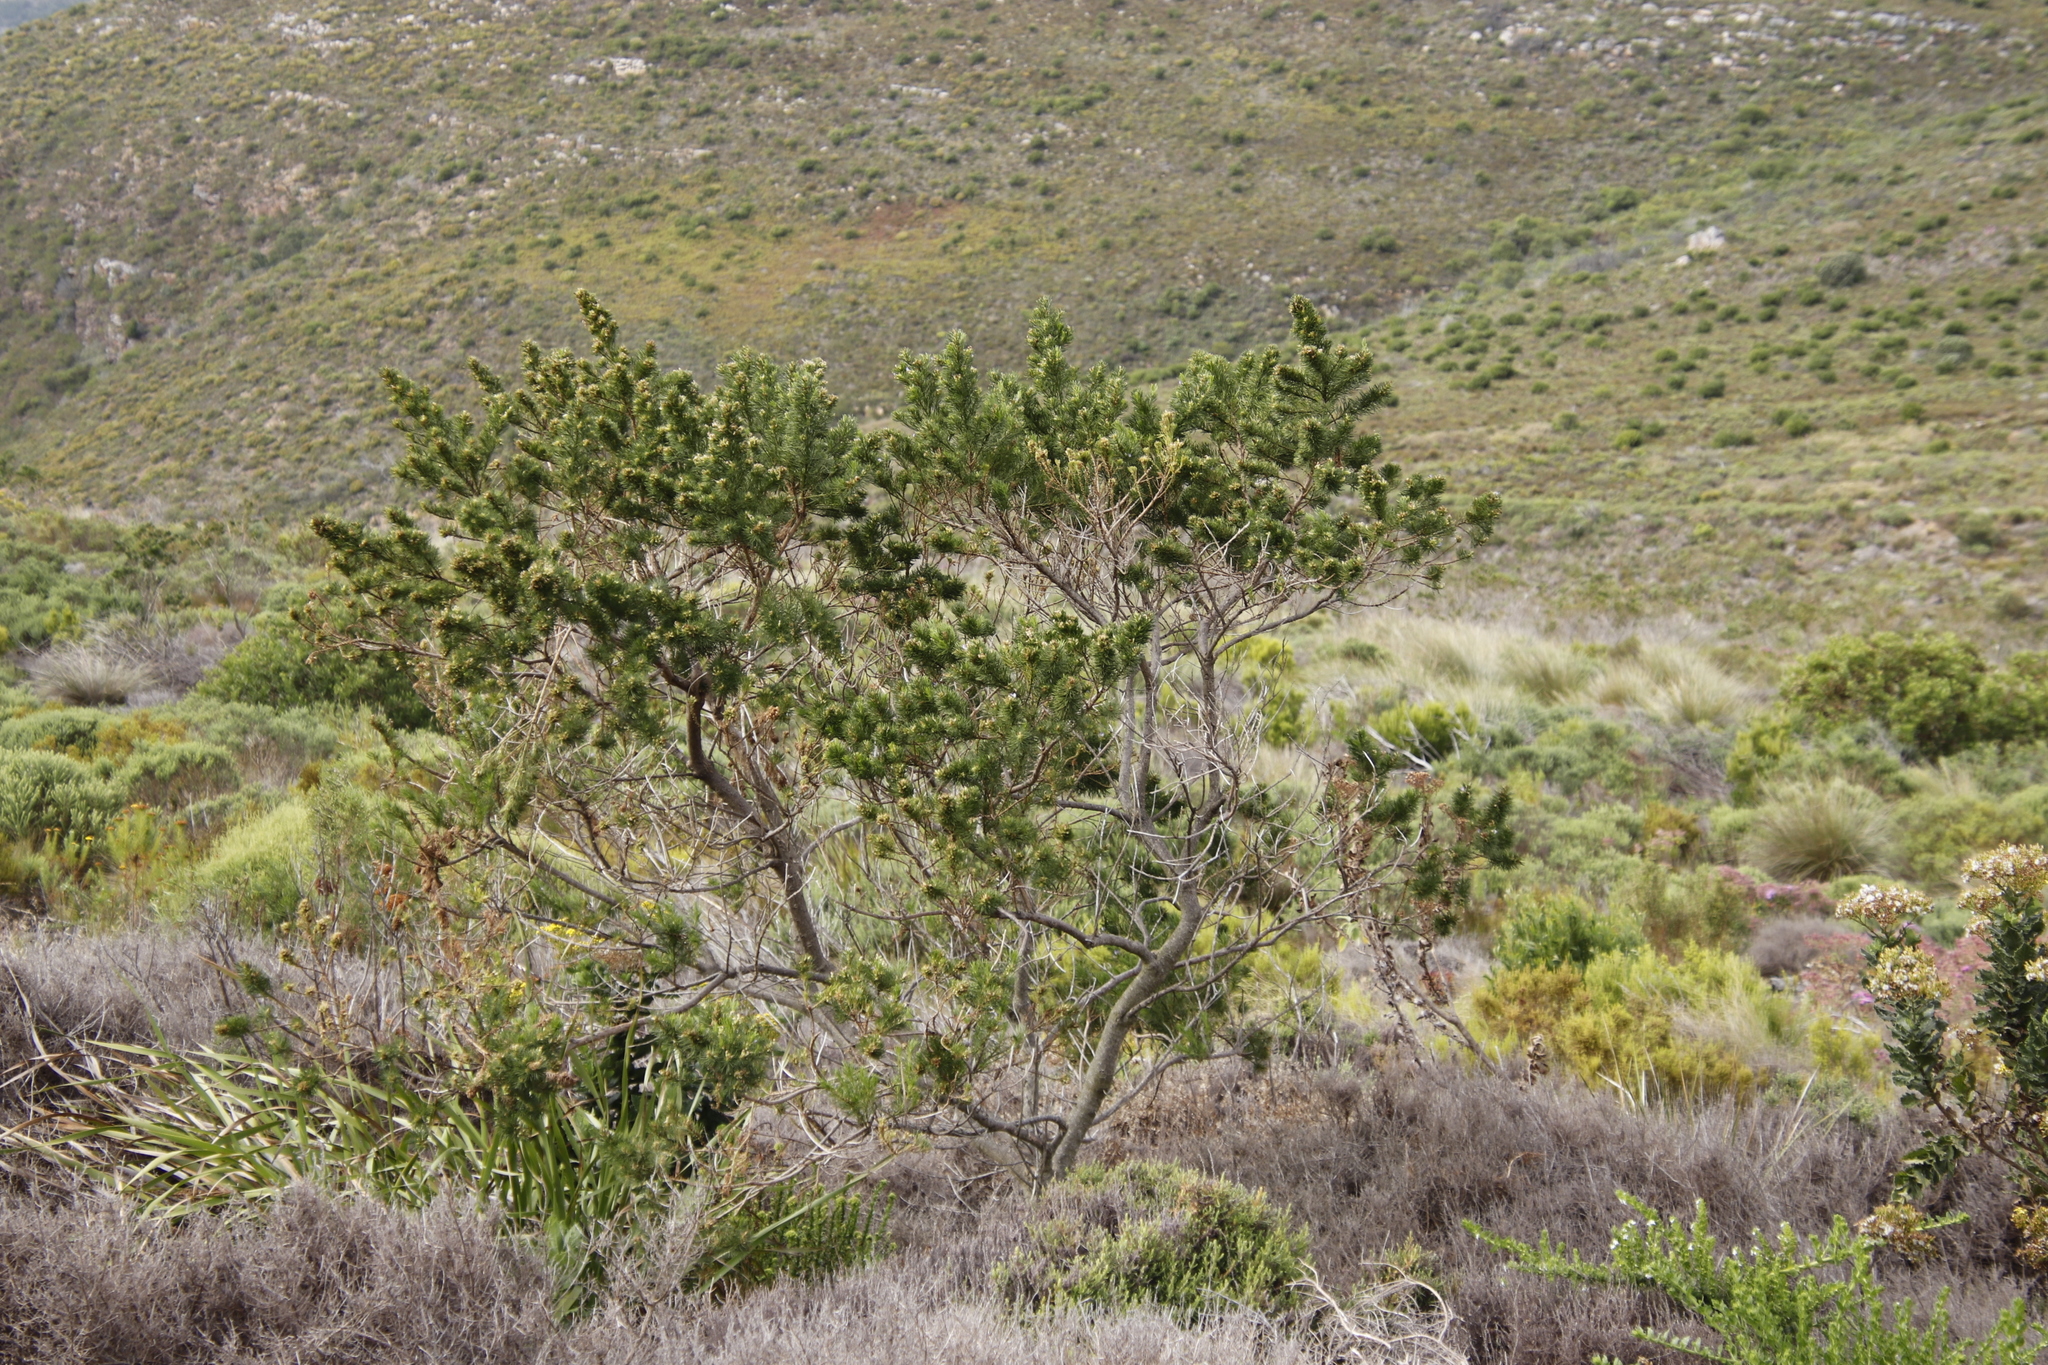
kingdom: Plantae
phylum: Tracheophyta
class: Magnoliopsida
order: Fabales
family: Fabaceae
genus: Psoralea
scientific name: Psoralea pinnata
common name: African scurfpea
